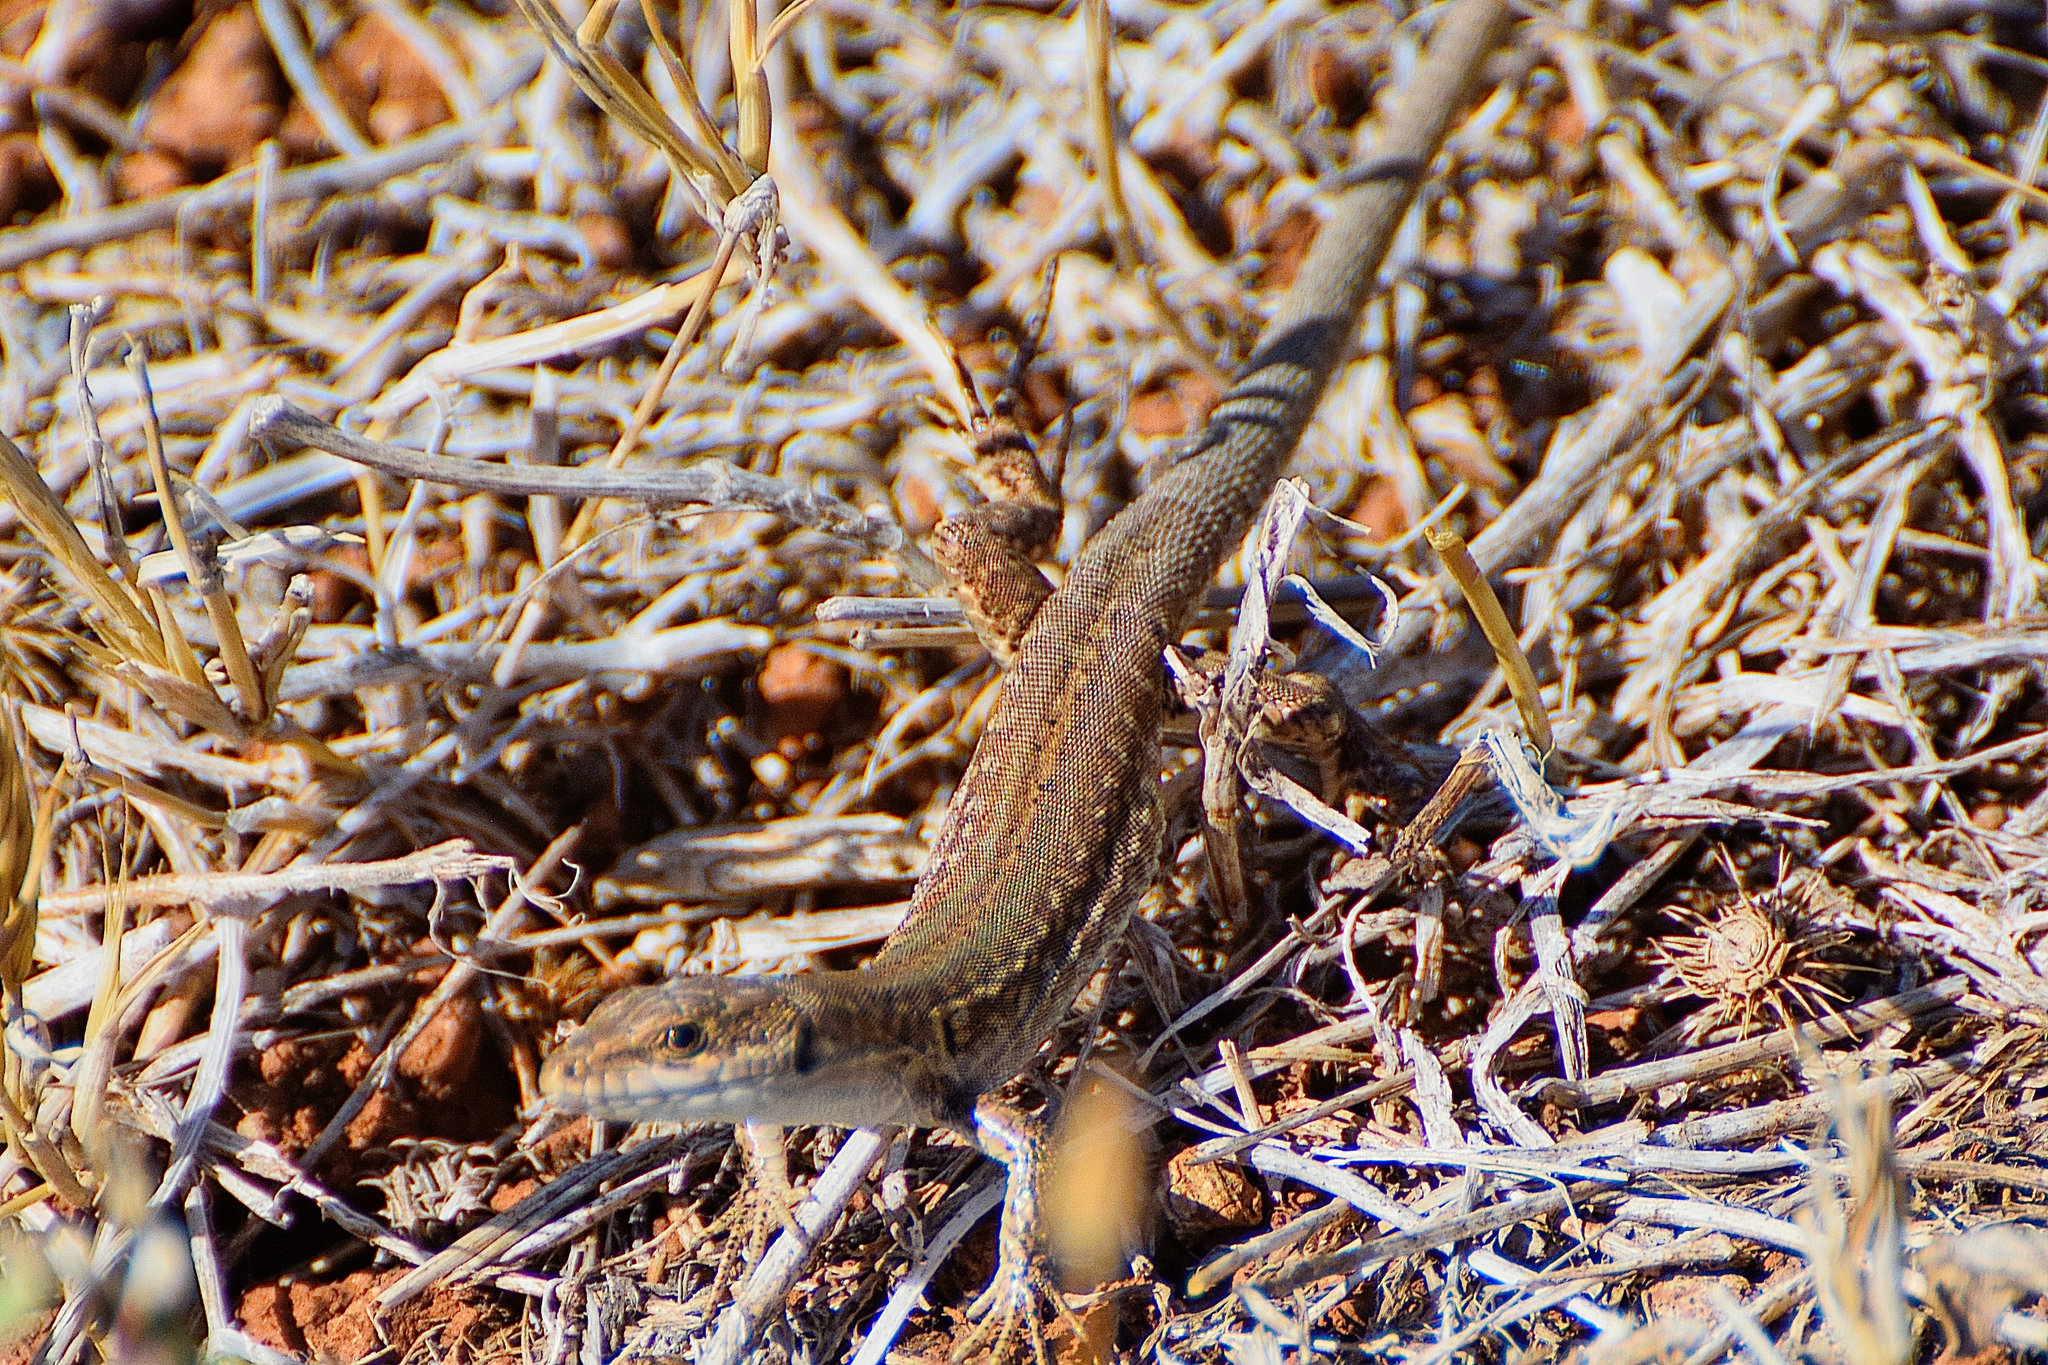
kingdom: Animalia
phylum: Chordata
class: Squamata
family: Lacertidae
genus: Podarcis
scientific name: Podarcis siculus
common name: Italian wall lizard
